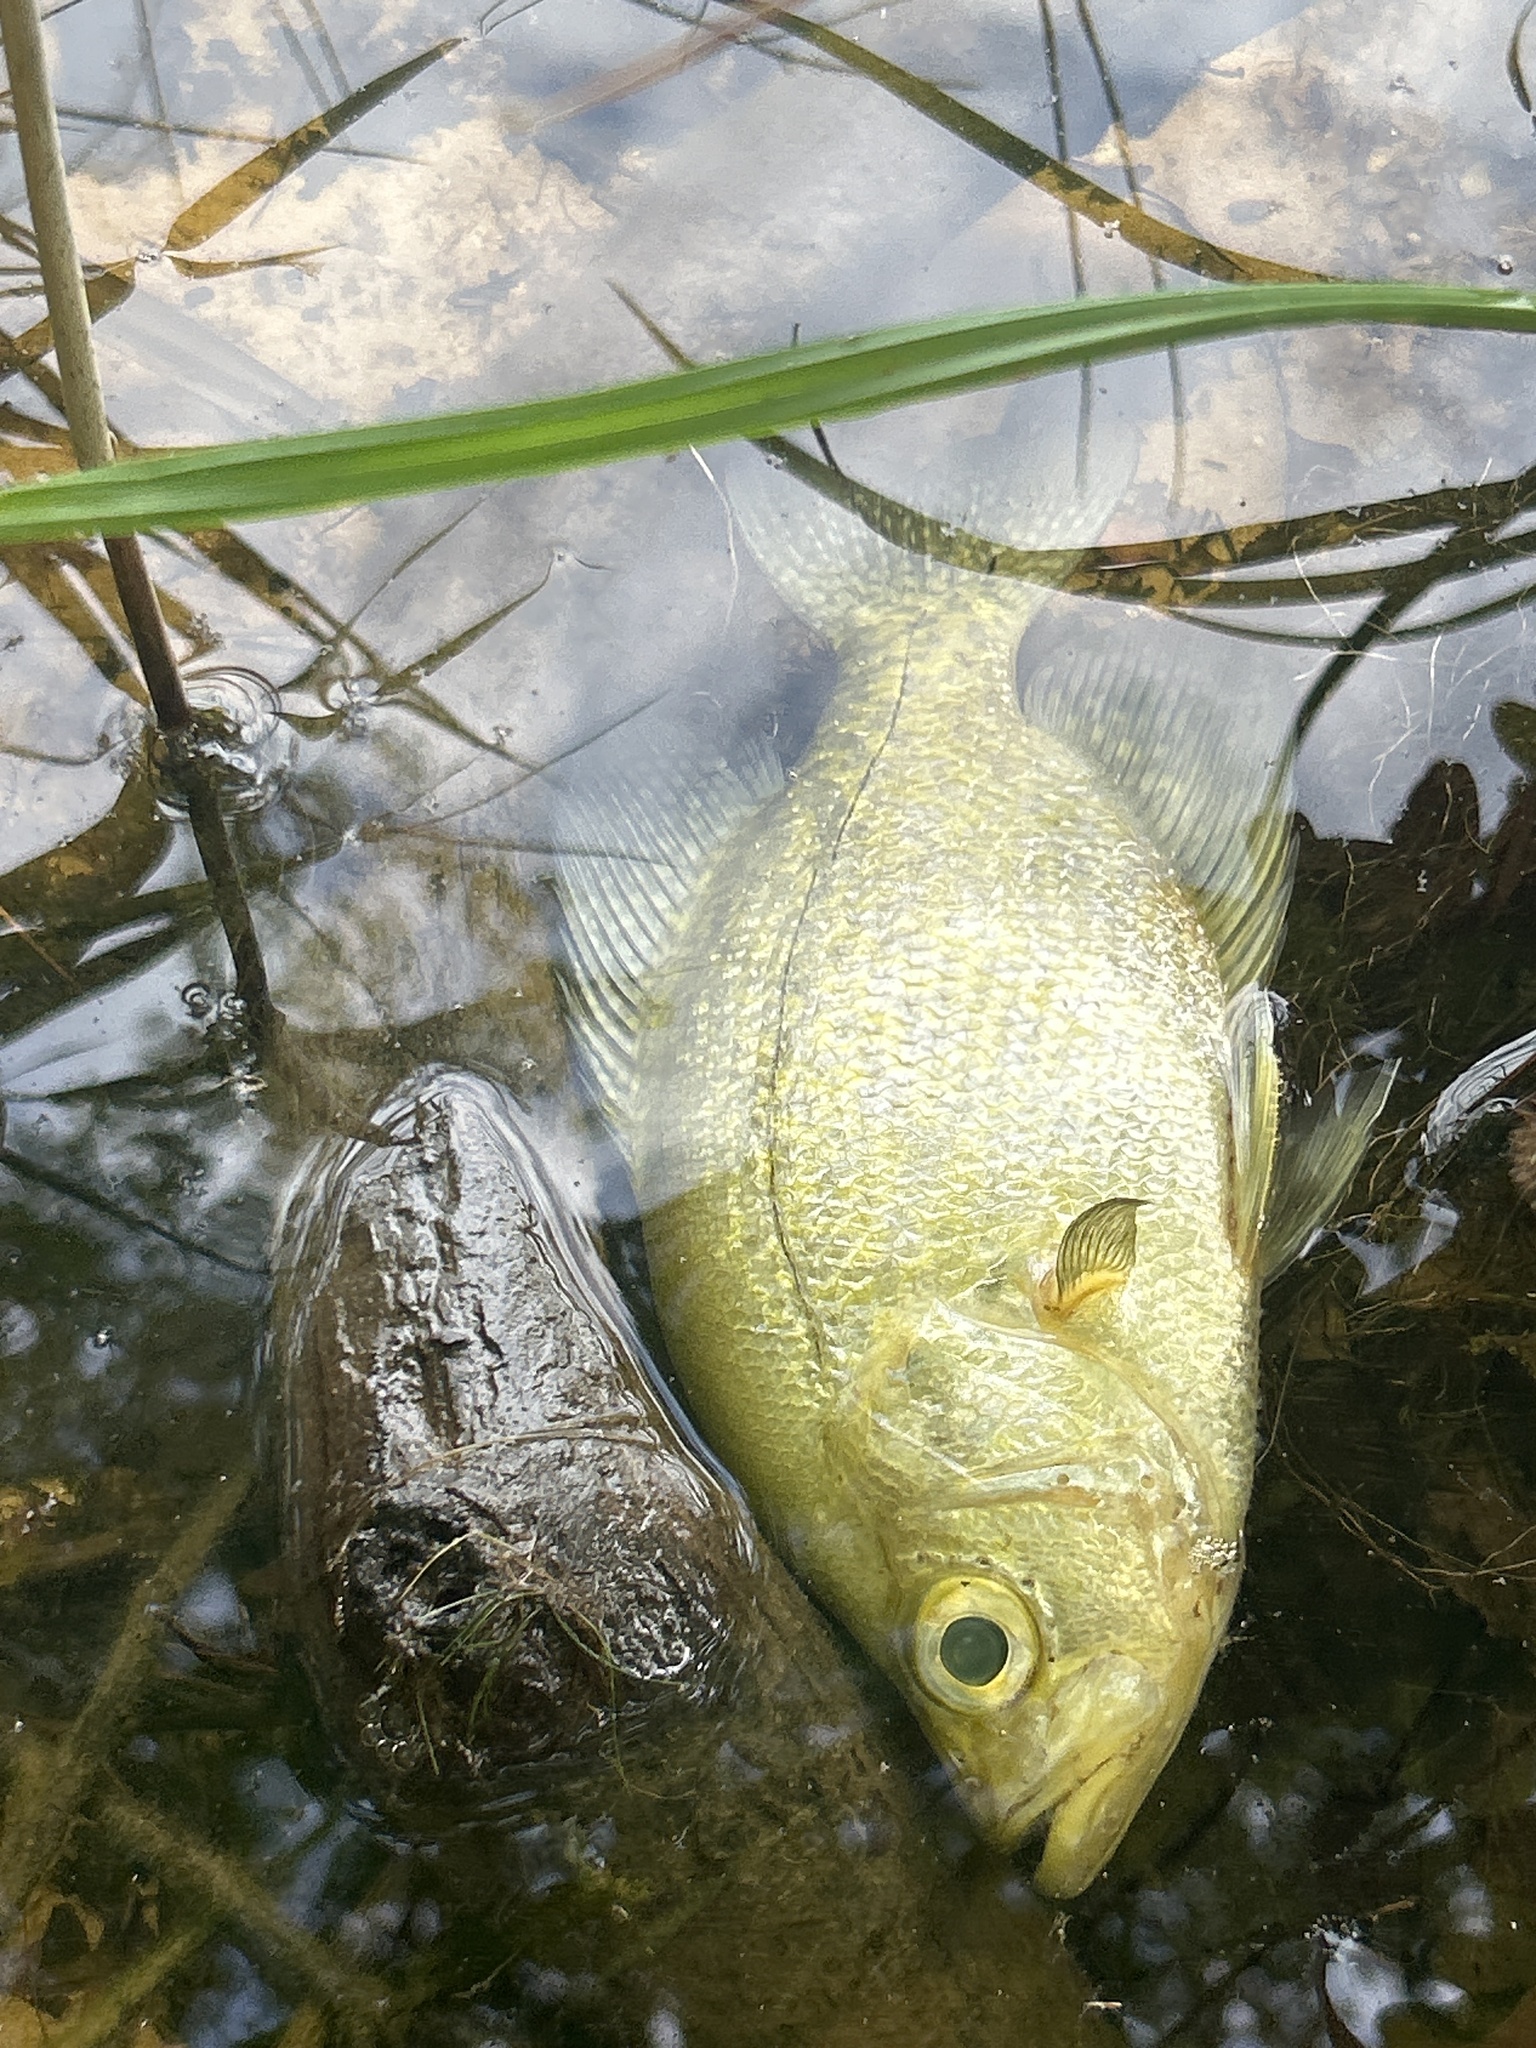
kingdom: Animalia
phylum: Chordata
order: Perciformes
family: Centrarchidae
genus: Pomoxis
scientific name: Pomoxis nigromaculatus
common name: Black crappie
